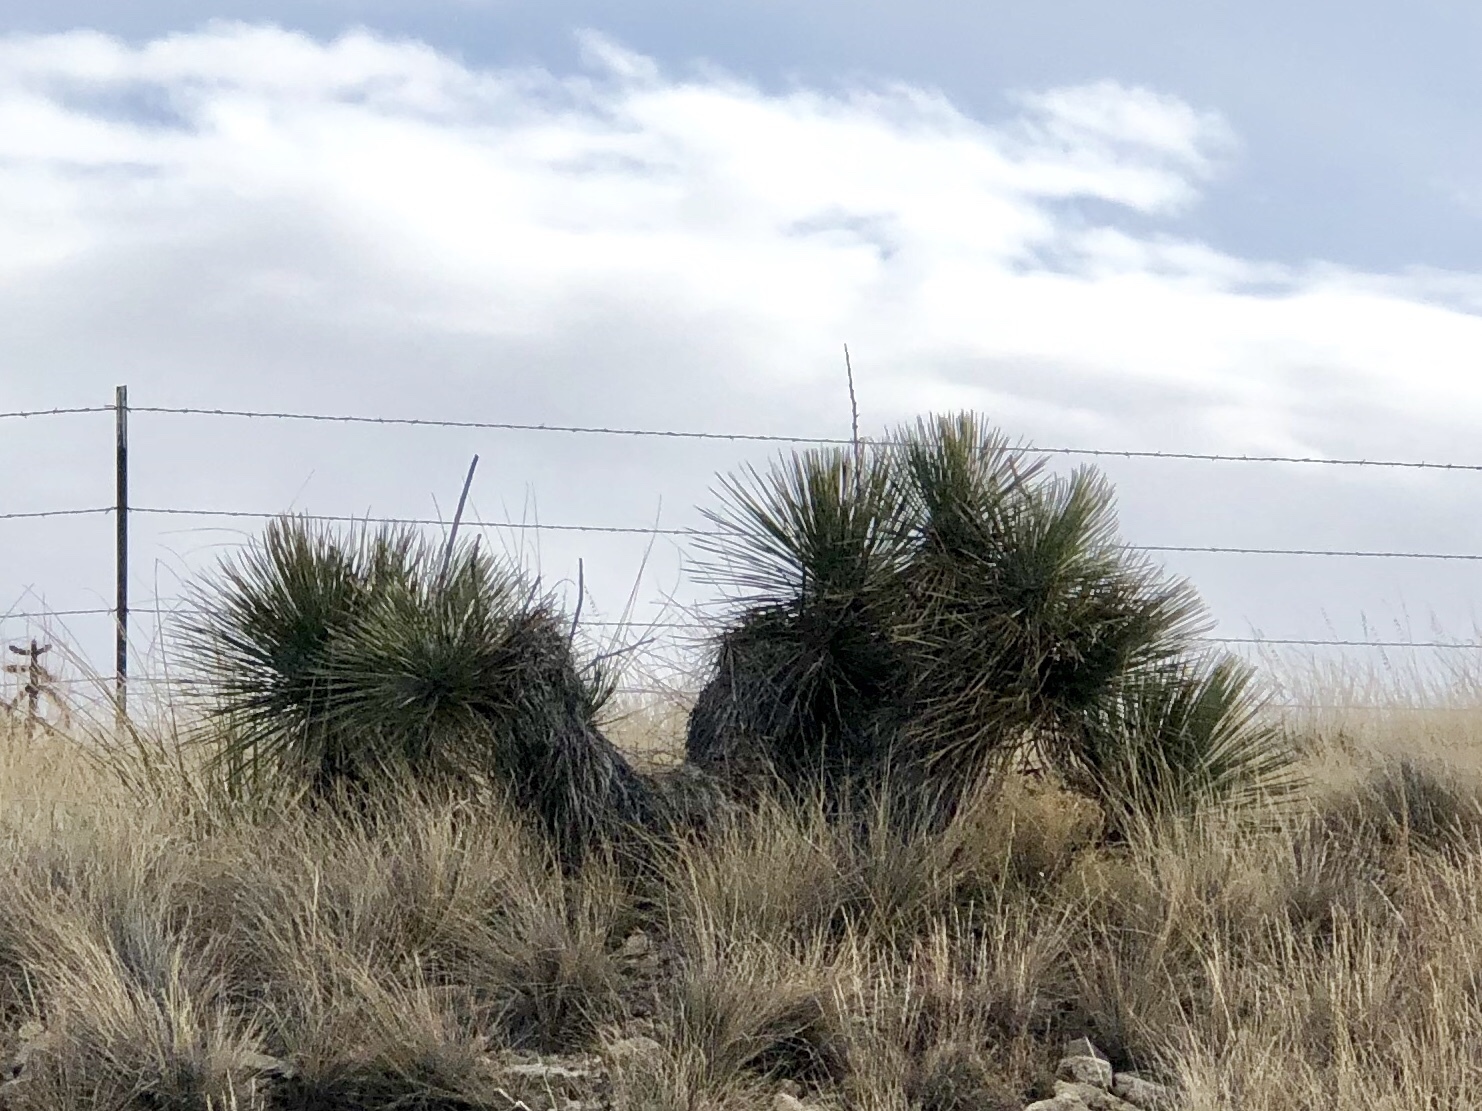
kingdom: Plantae
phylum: Tracheophyta
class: Liliopsida
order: Asparagales
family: Asparagaceae
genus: Yucca
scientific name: Yucca elata
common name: Palmella
